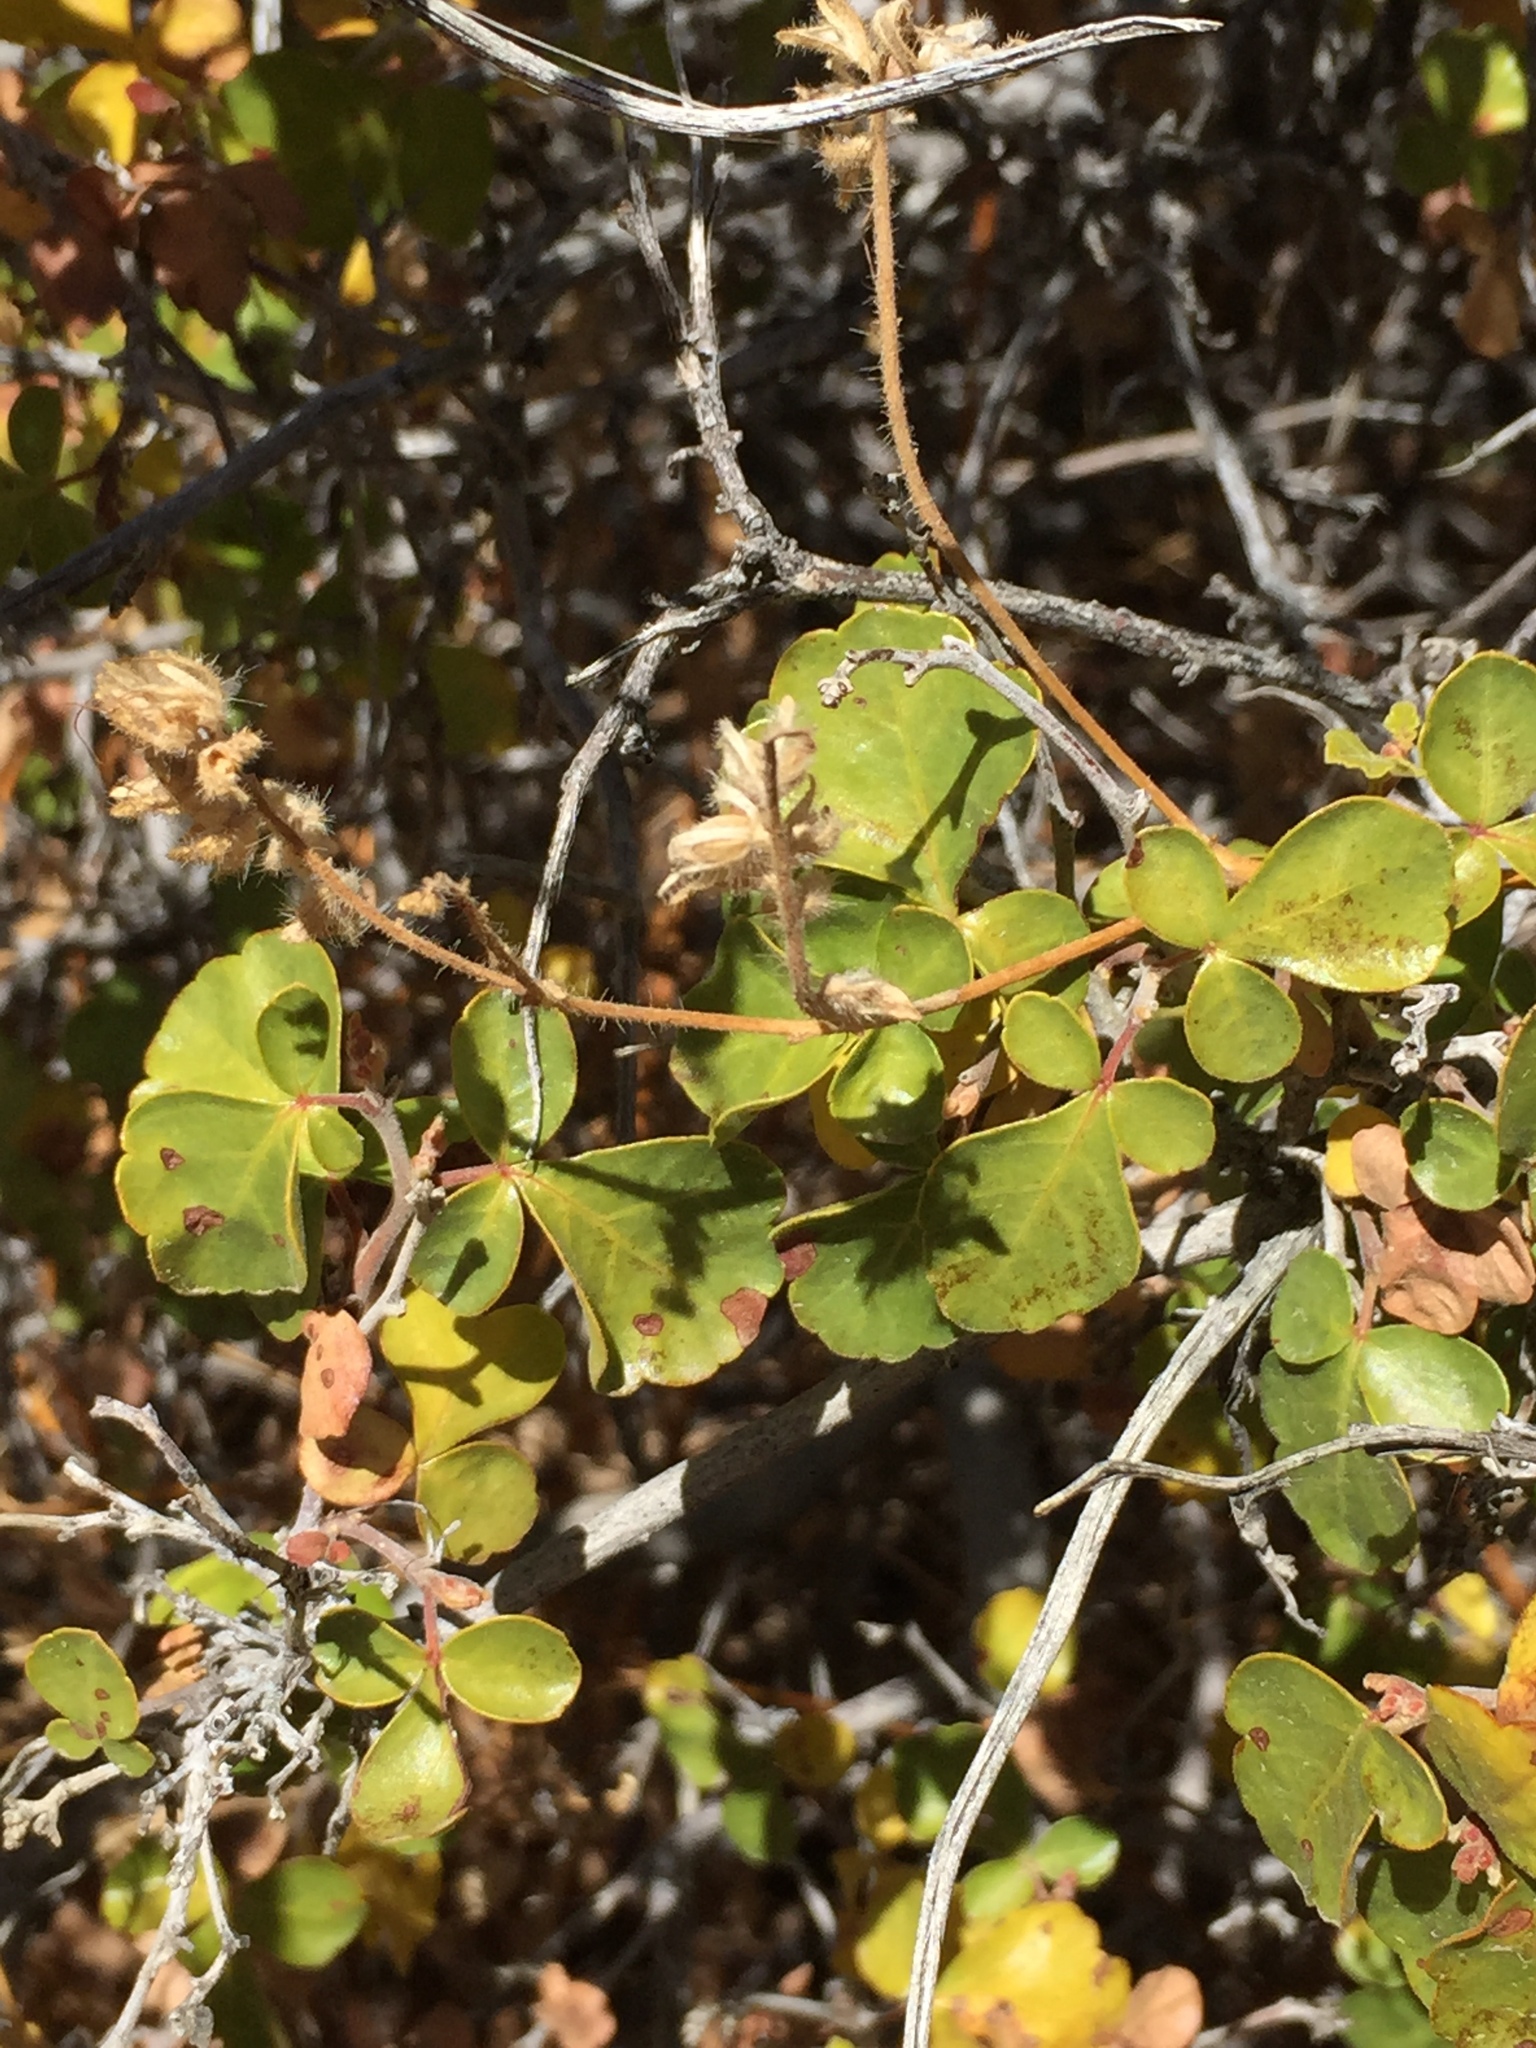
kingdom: Plantae
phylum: Tracheophyta
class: Magnoliopsida
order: Sapindales
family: Anacardiaceae
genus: Rhus
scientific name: Rhus aromatica
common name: Aromatic sumac
